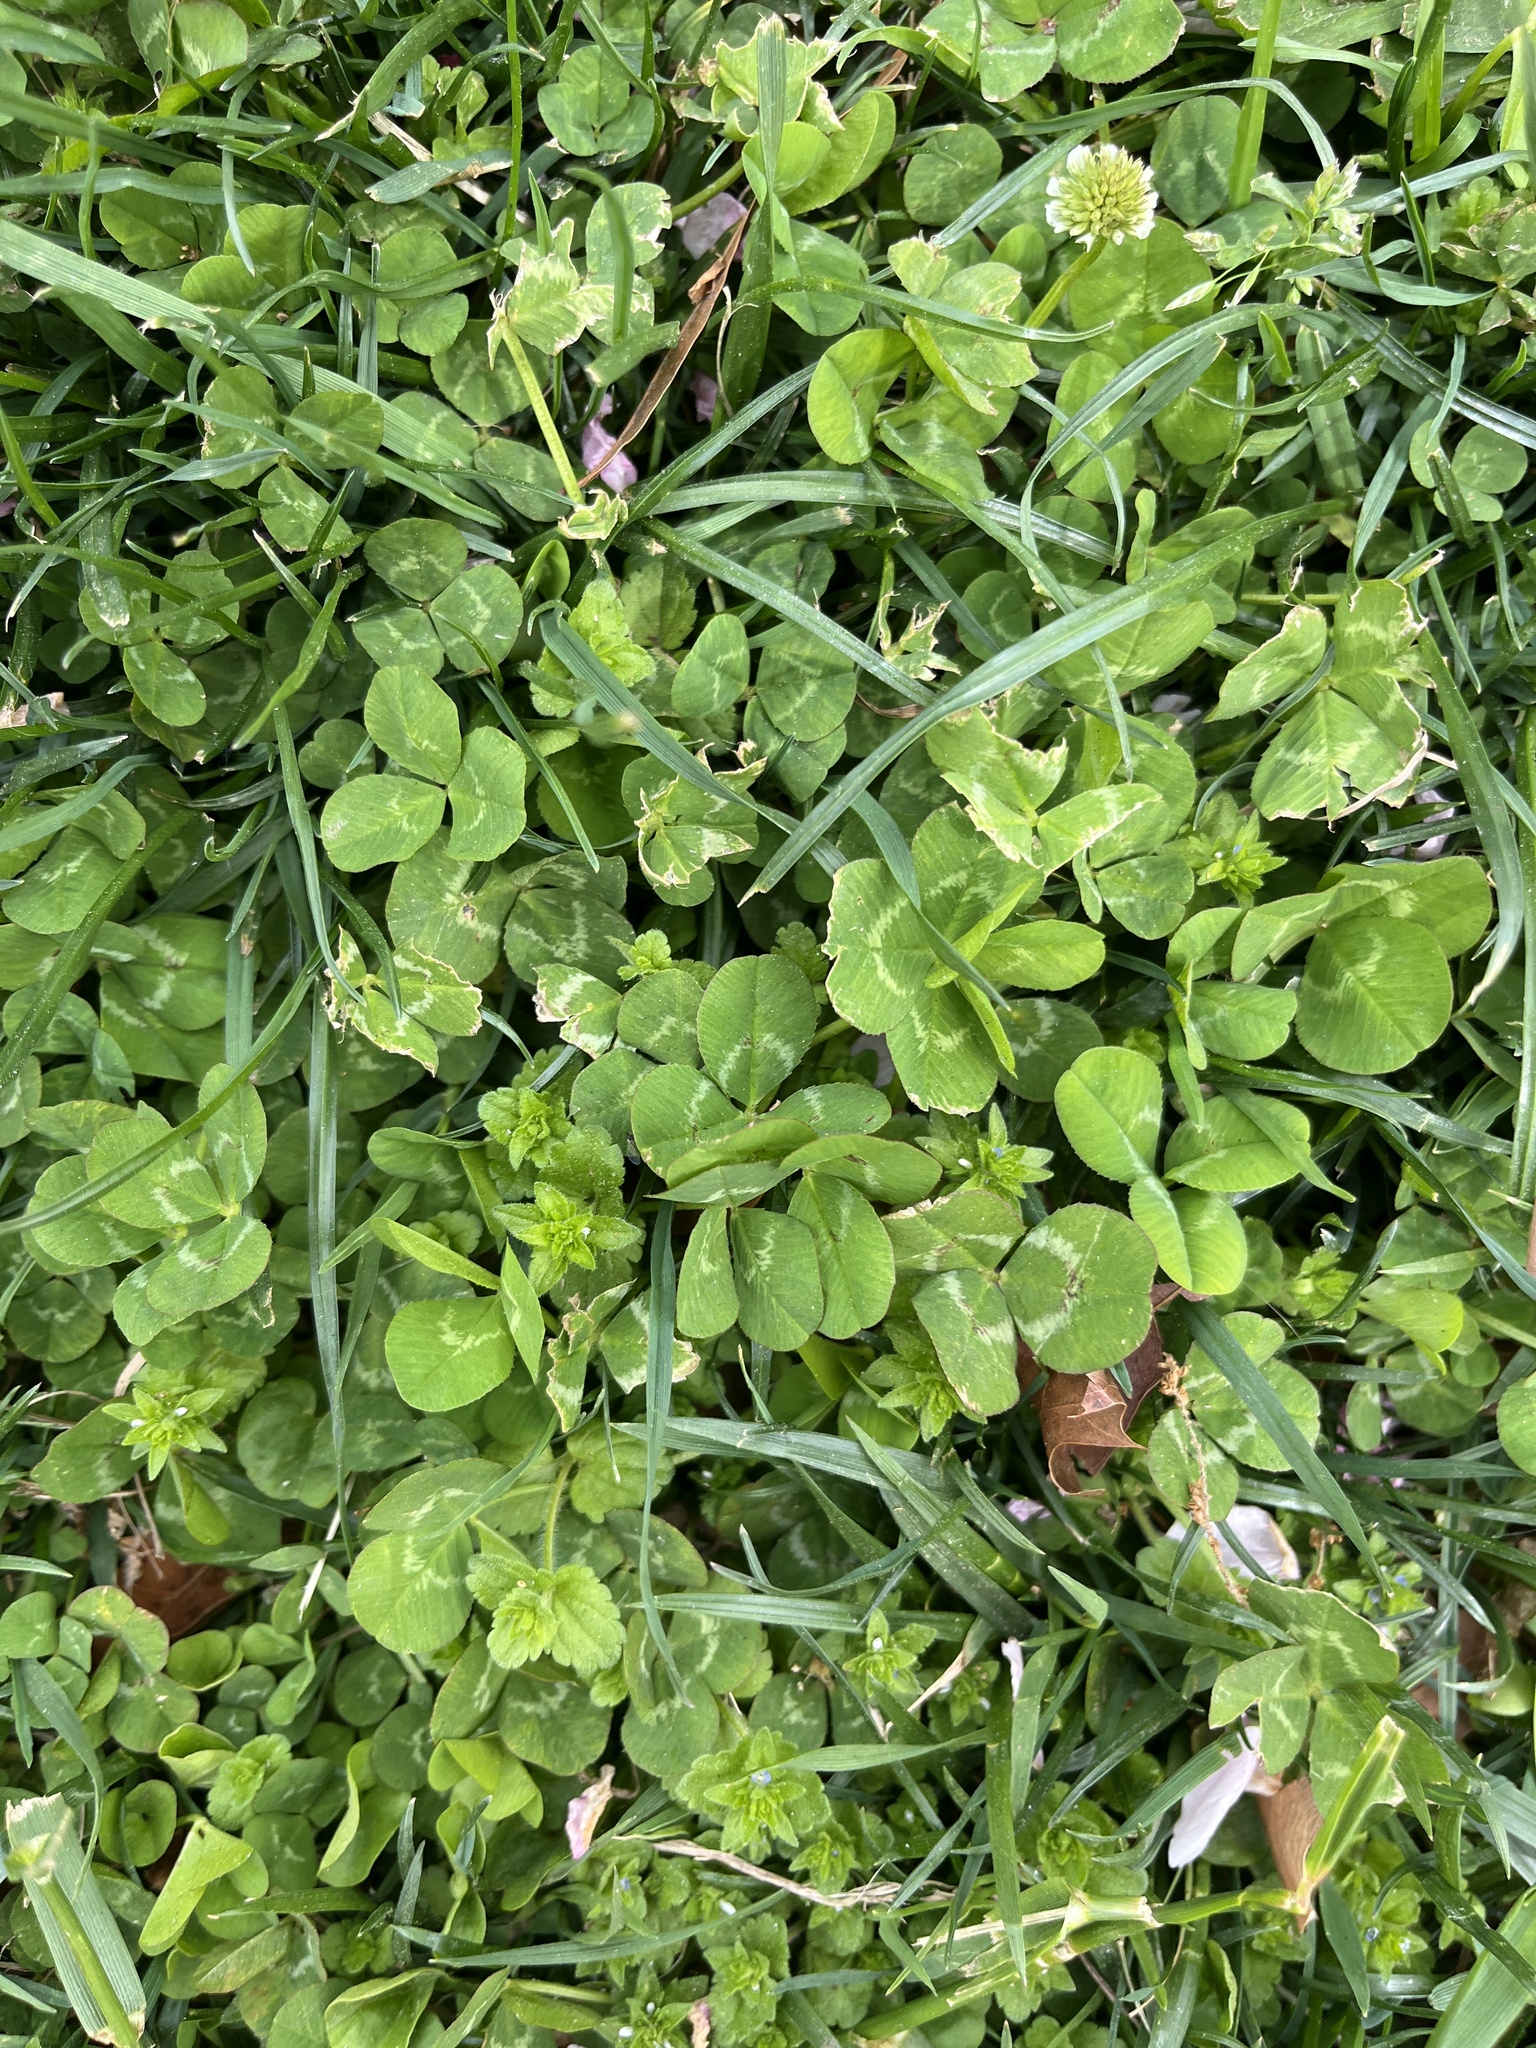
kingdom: Plantae
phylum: Tracheophyta
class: Magnoliopsida
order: Fabales
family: Fabaceae
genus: Trifolium
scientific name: Trifolium repens
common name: White clover
